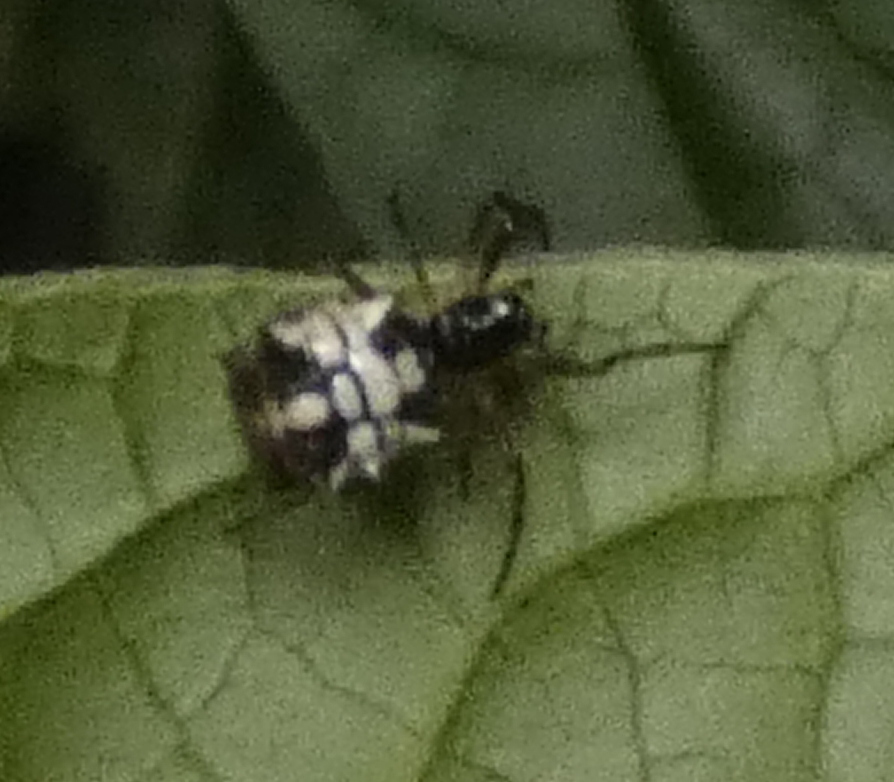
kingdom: Animalia
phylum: Arthropoda
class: Arachnida
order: Araneae
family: Araneidae
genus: Micrathena
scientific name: Micrathena picta
